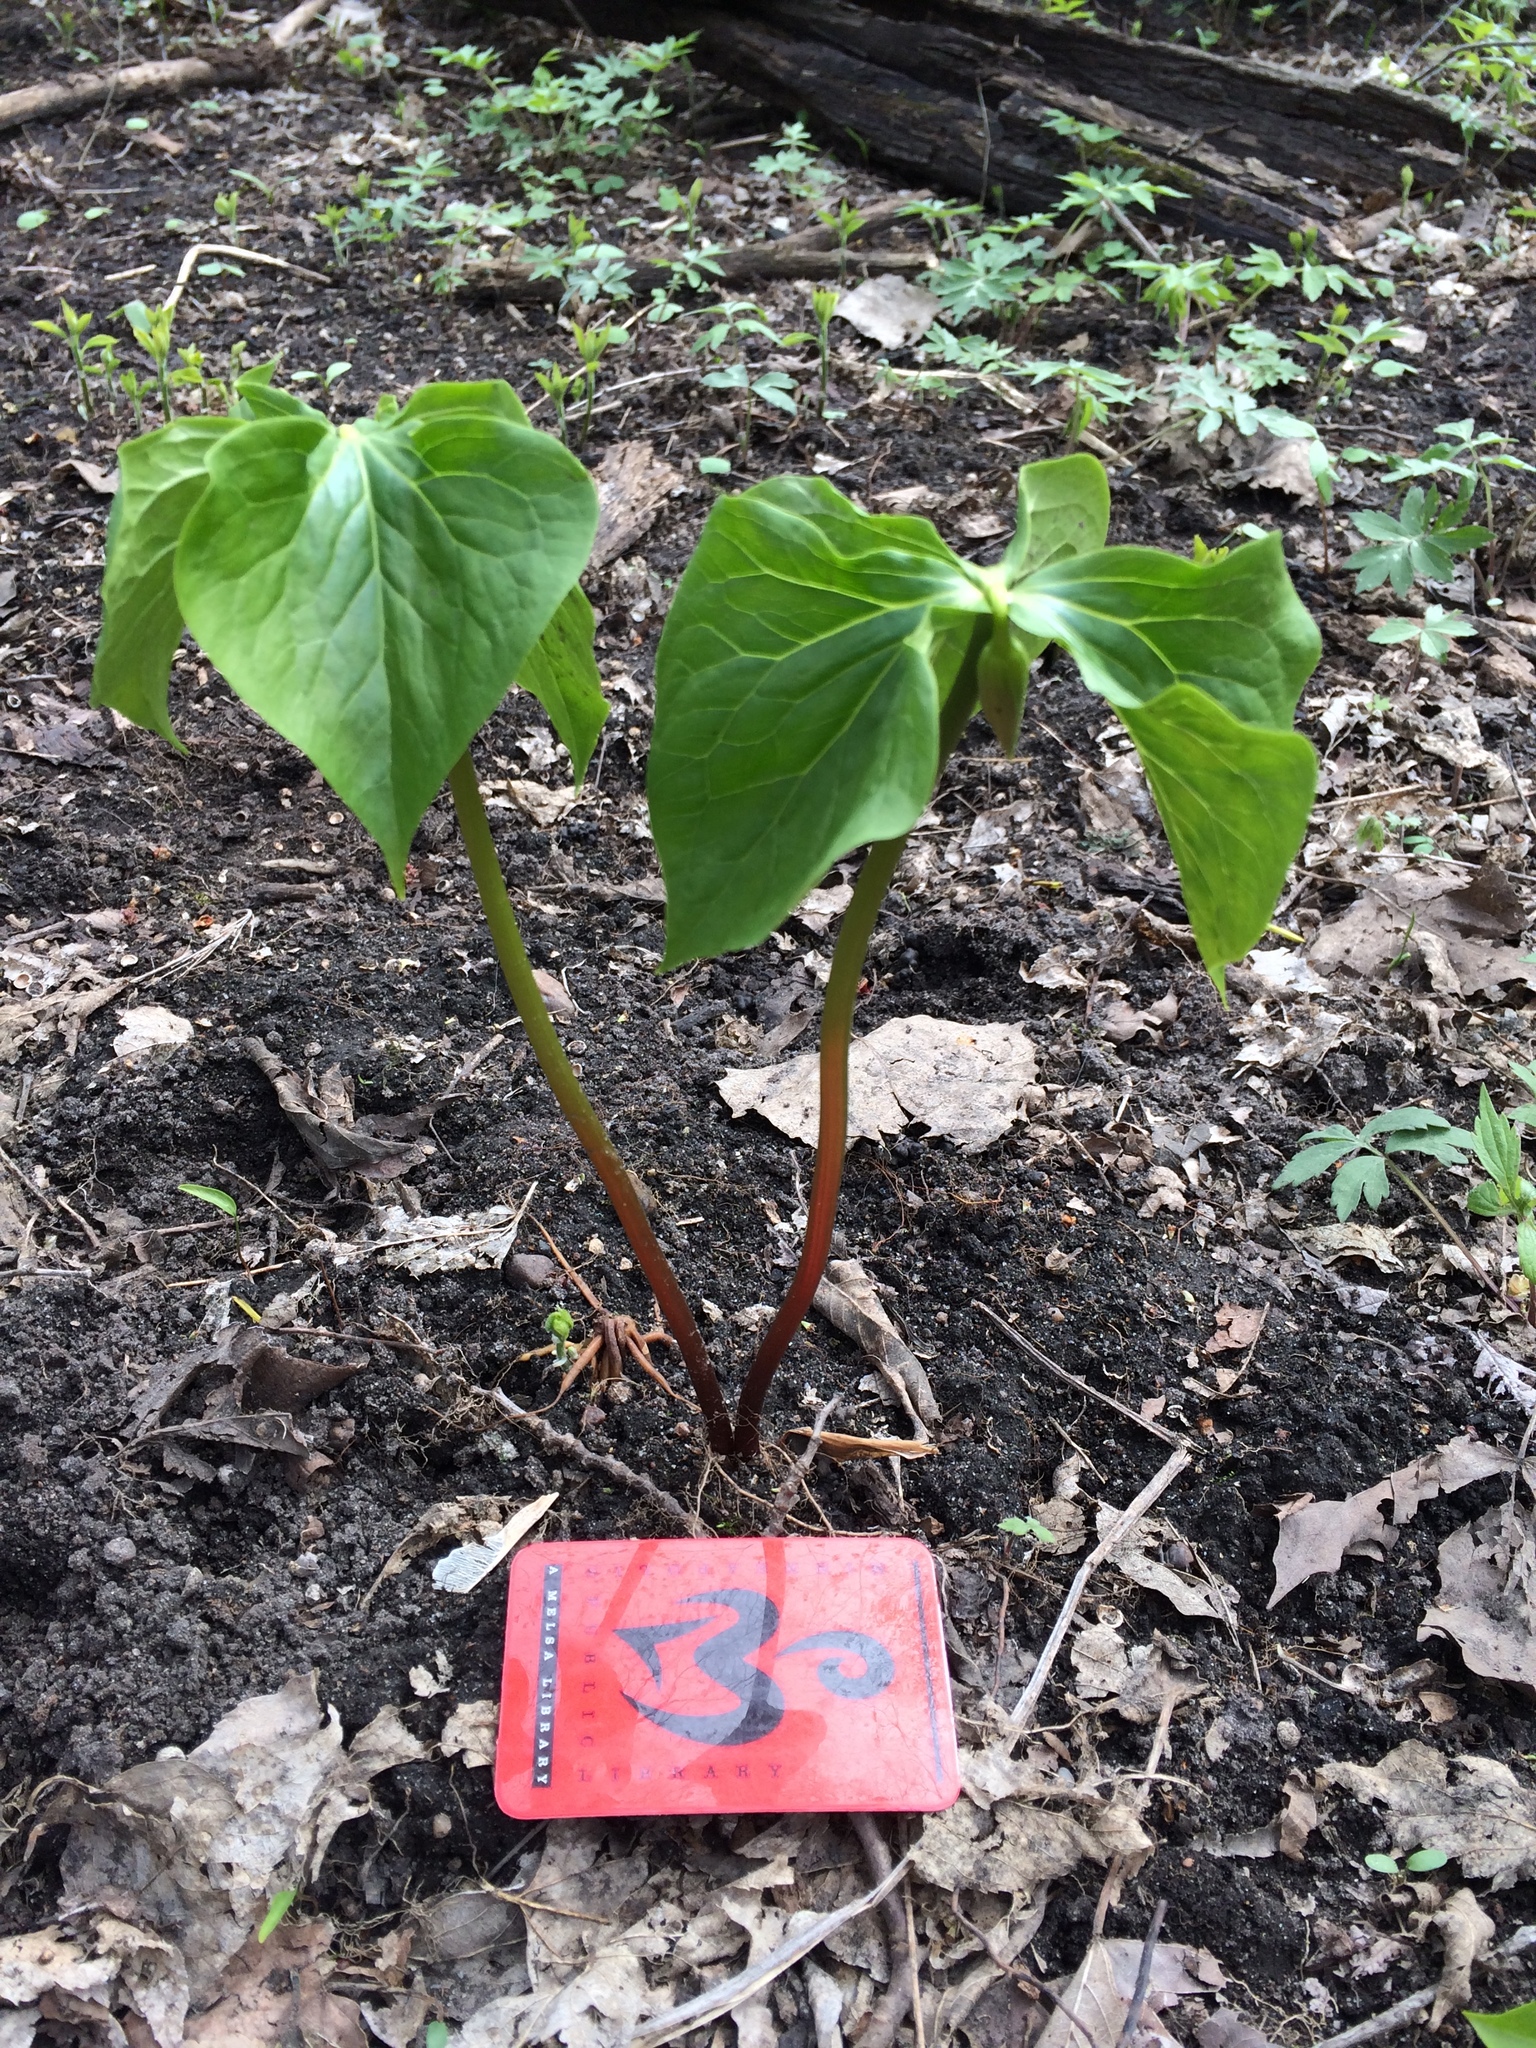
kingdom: Plantae
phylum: Tracheophyta
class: Liliopsida
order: Liliales
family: Melanthiaceae
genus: Trillium
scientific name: Trillium cernuum
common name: Nodding trillium
